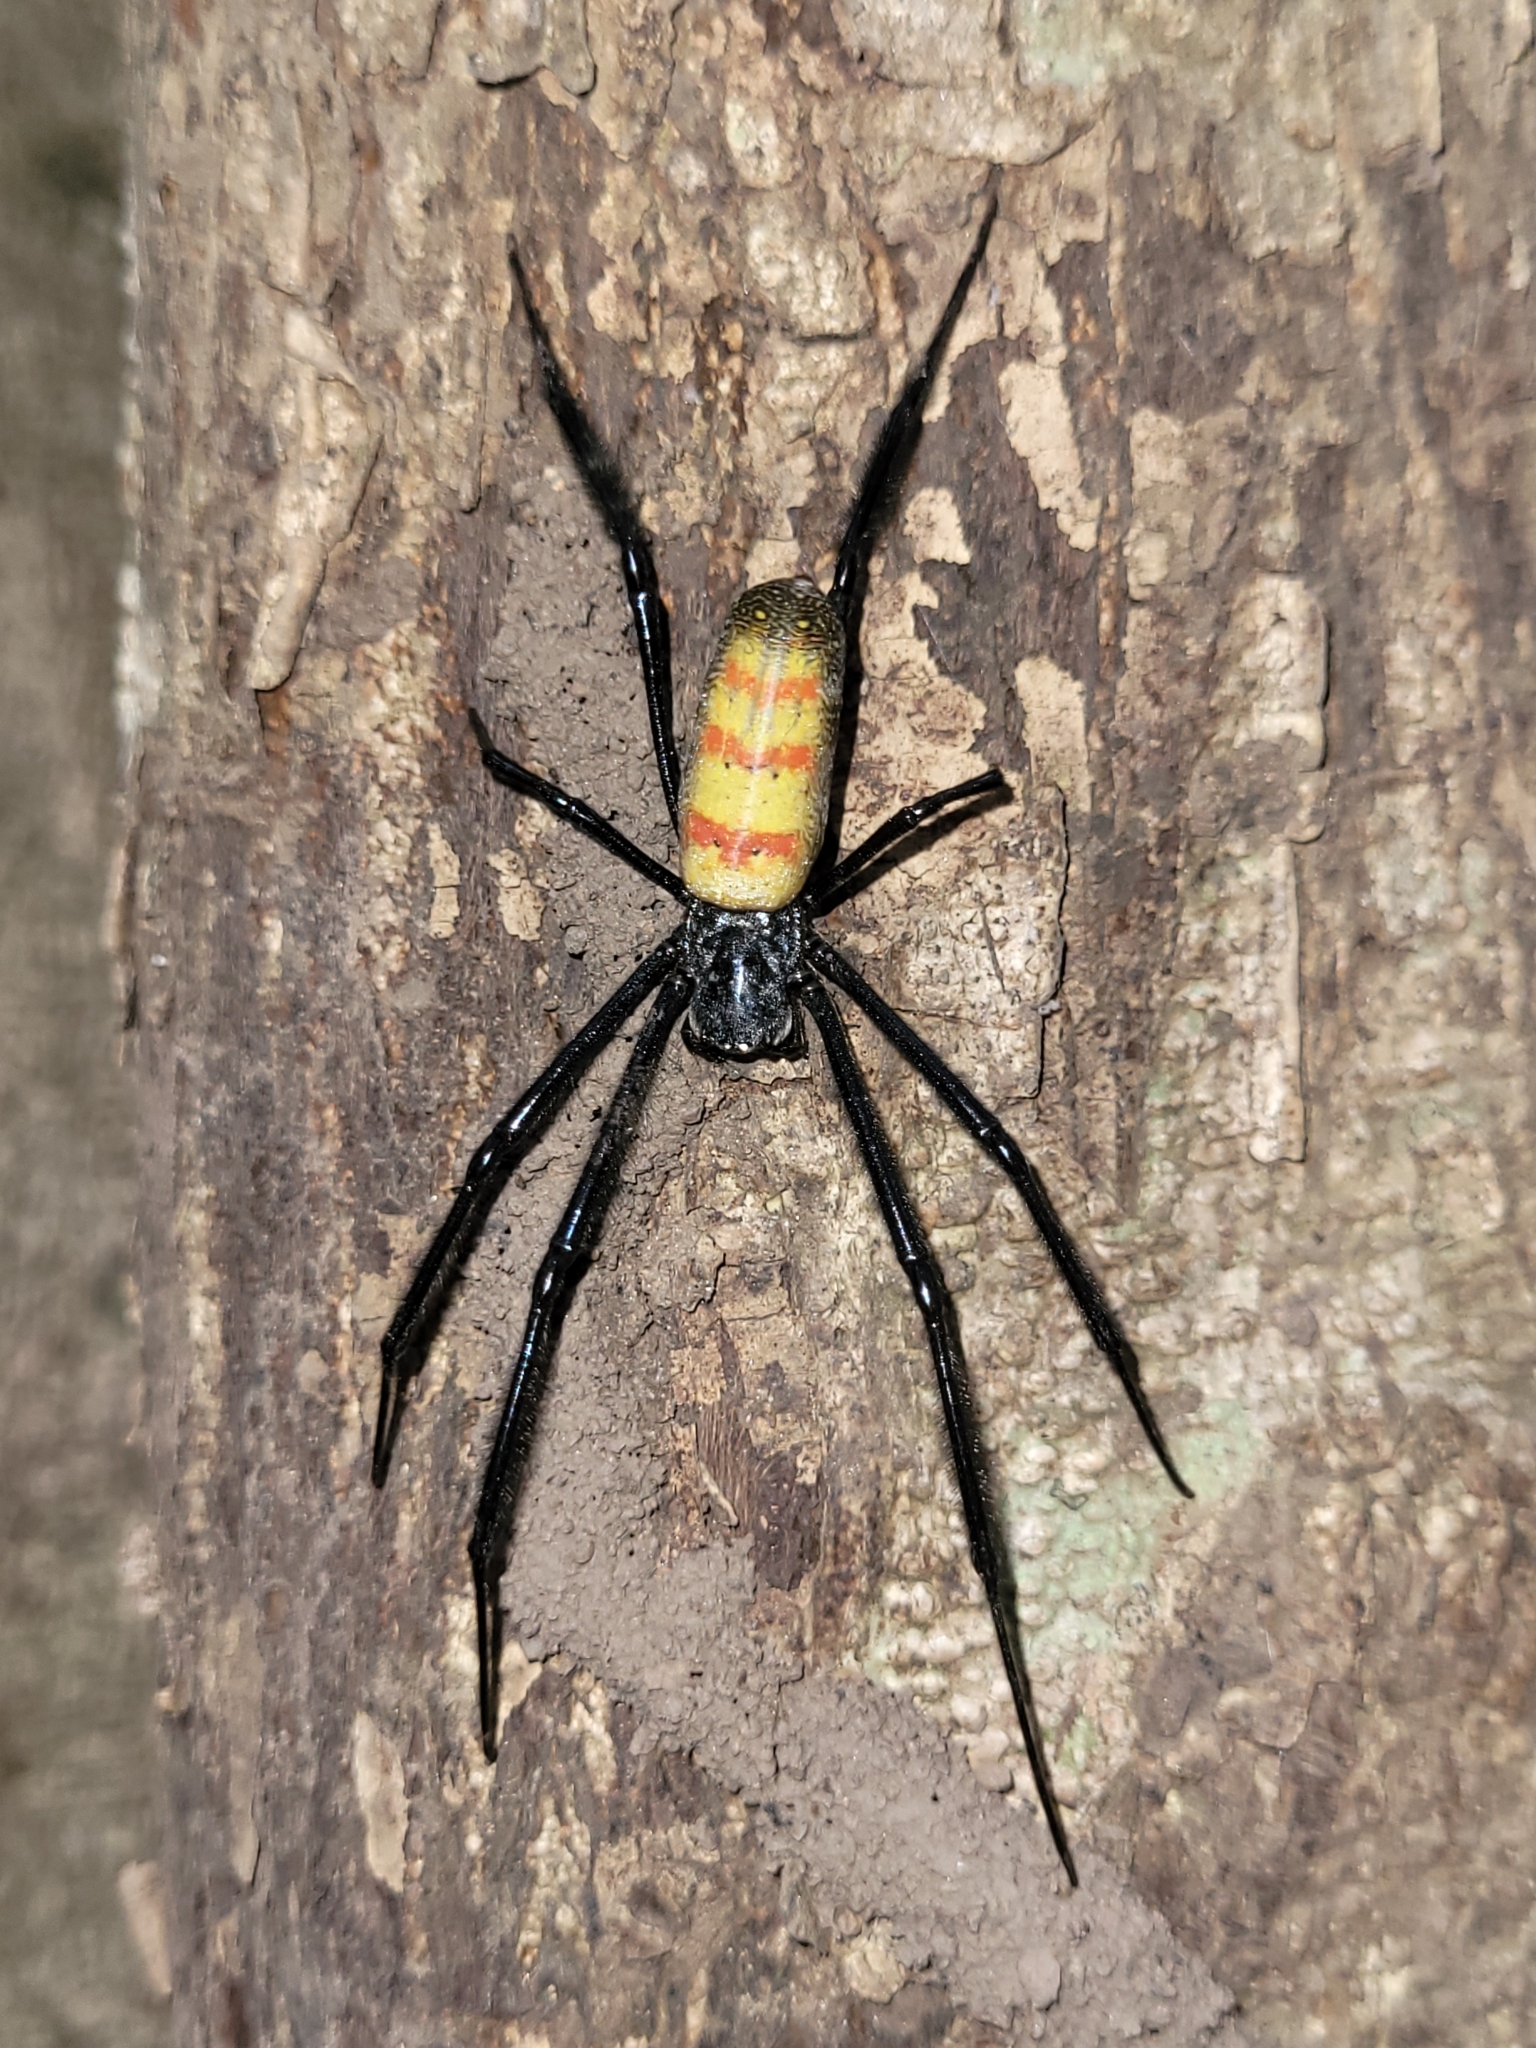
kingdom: Animalia
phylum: Arthropoda
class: Arachnida
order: Araneae
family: Araneidae
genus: Trichonephila
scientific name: Trichonephila fenestrata
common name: Hairy golden orb weaver
